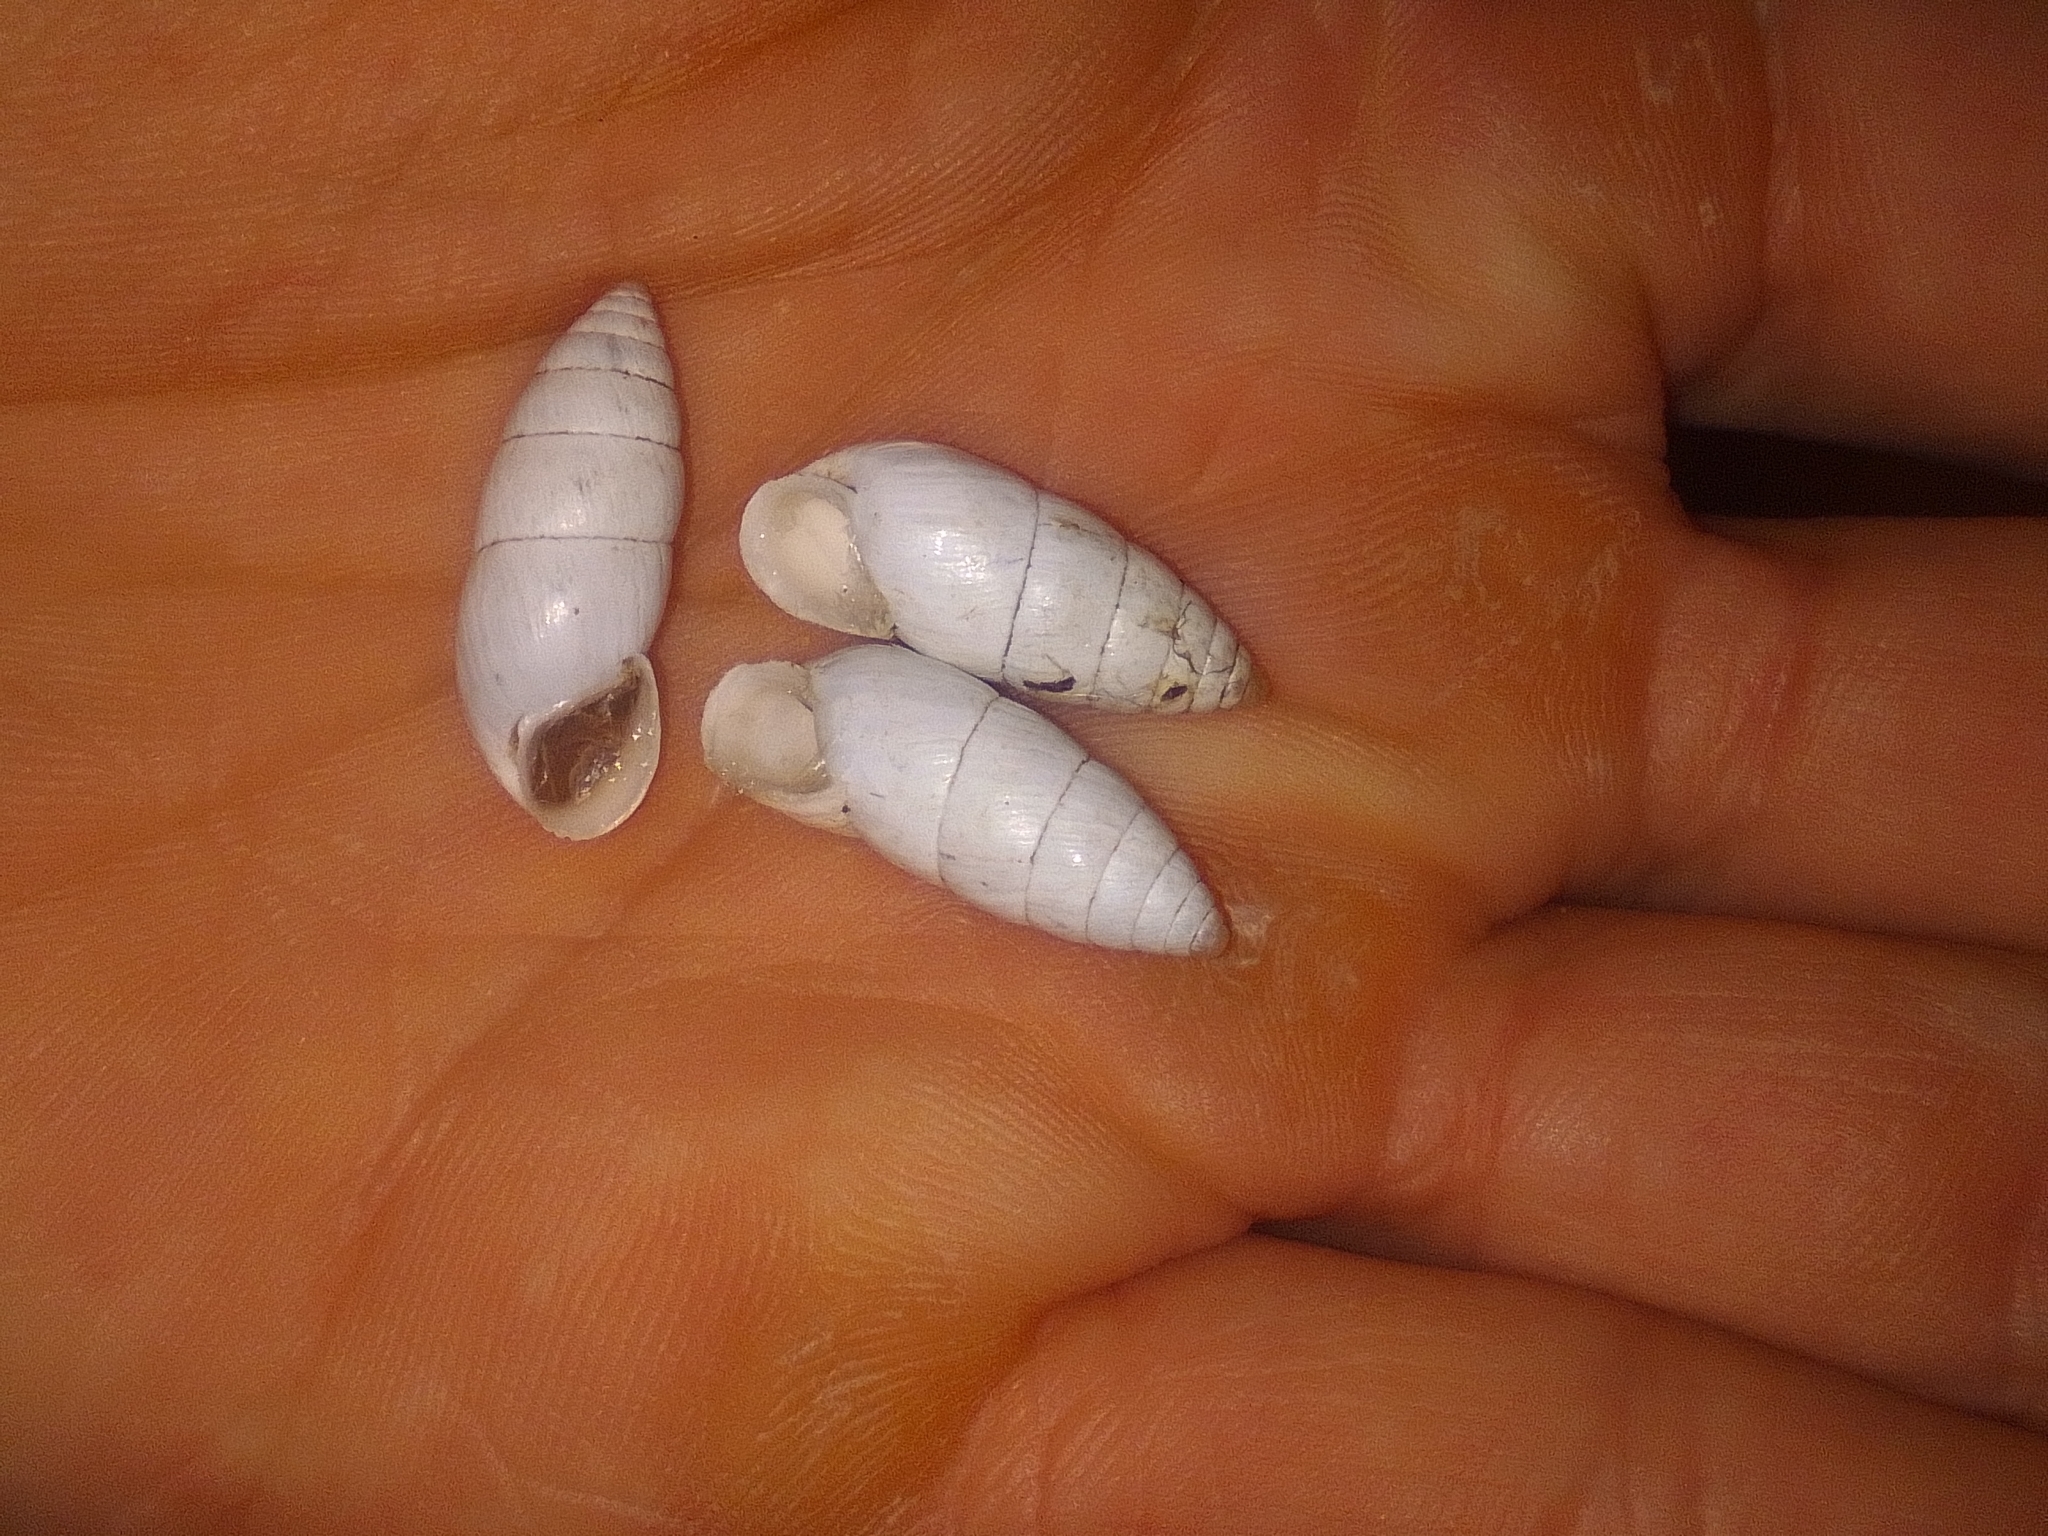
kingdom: Animalia
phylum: Mollusca
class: Gastropoda
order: Stylommatophora
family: Enidae
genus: Brephulopsis
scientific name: Brephulopsis cylindrica
